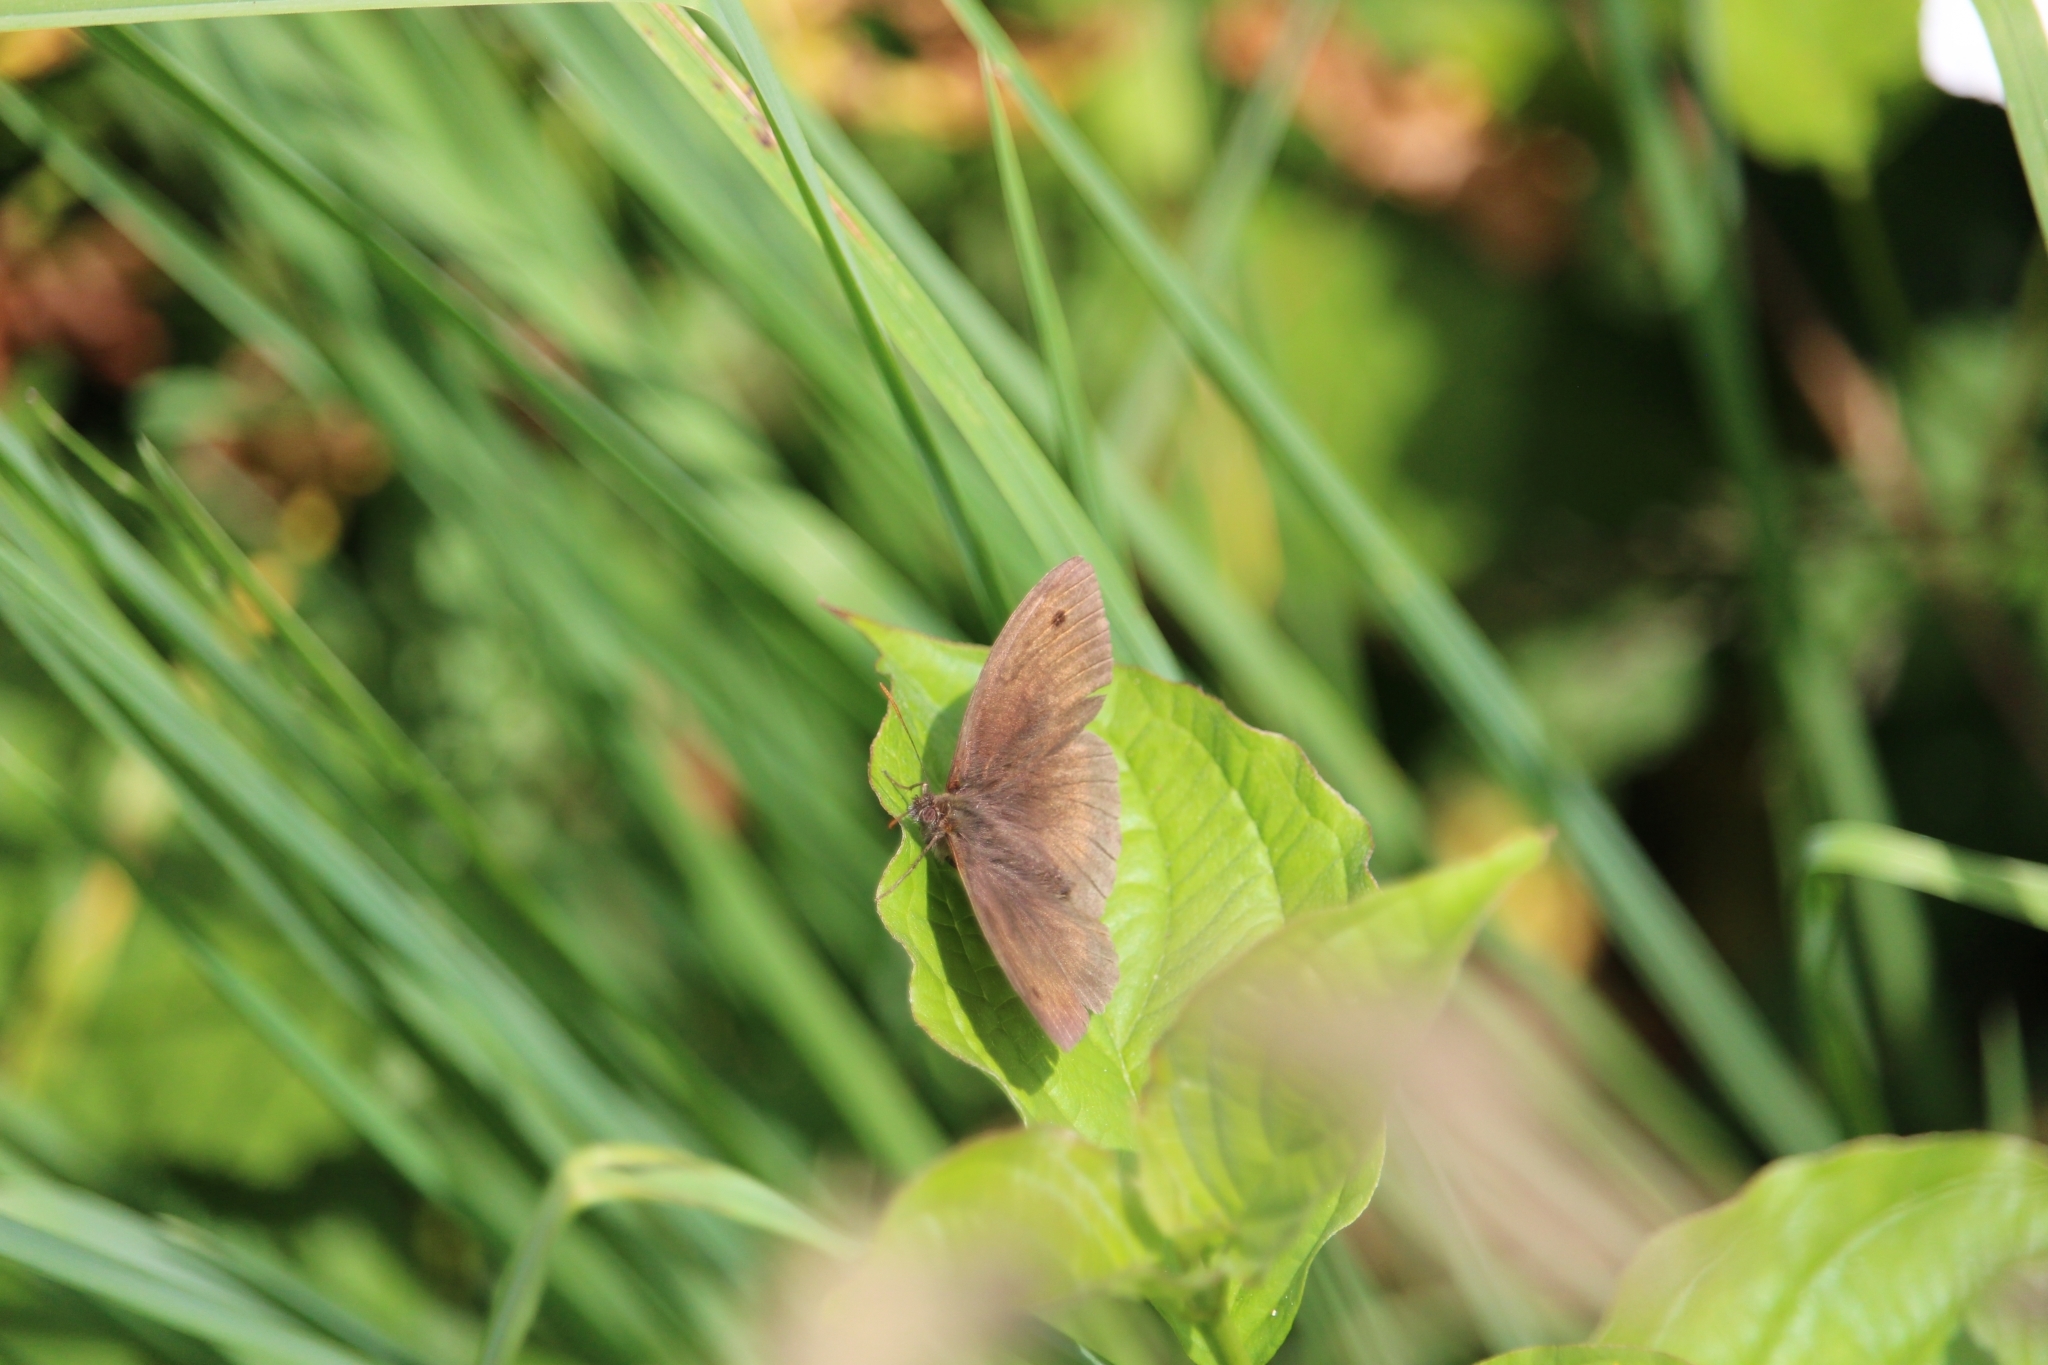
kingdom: Animalia
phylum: Arthropoda
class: Insecta
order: Lepidoptera
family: Nymphalidae
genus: Maniola
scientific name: Maniola jurtina
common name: Meadow brown
